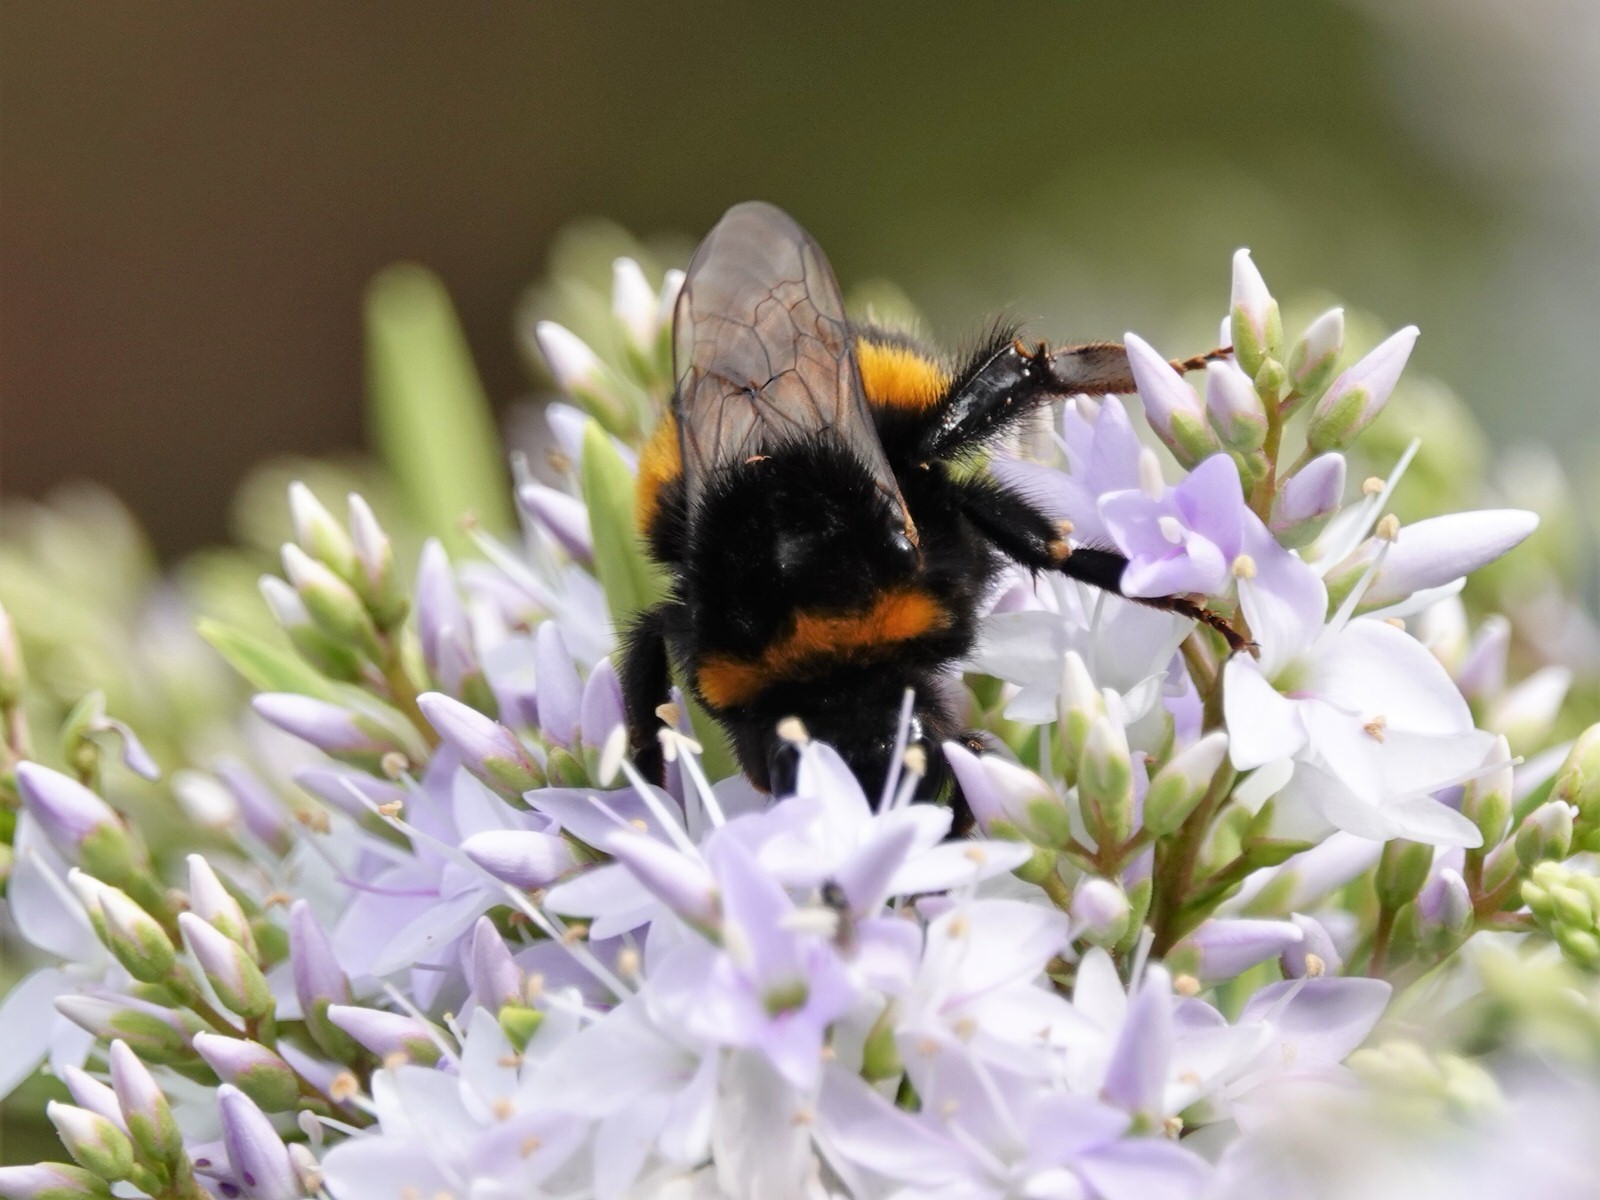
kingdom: Animalia
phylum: Arthropoda
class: Insecta
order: Hymenoptera
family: Apidae
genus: Bombus
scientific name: Bombus terrestris
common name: Buff-tailed bumblebee
